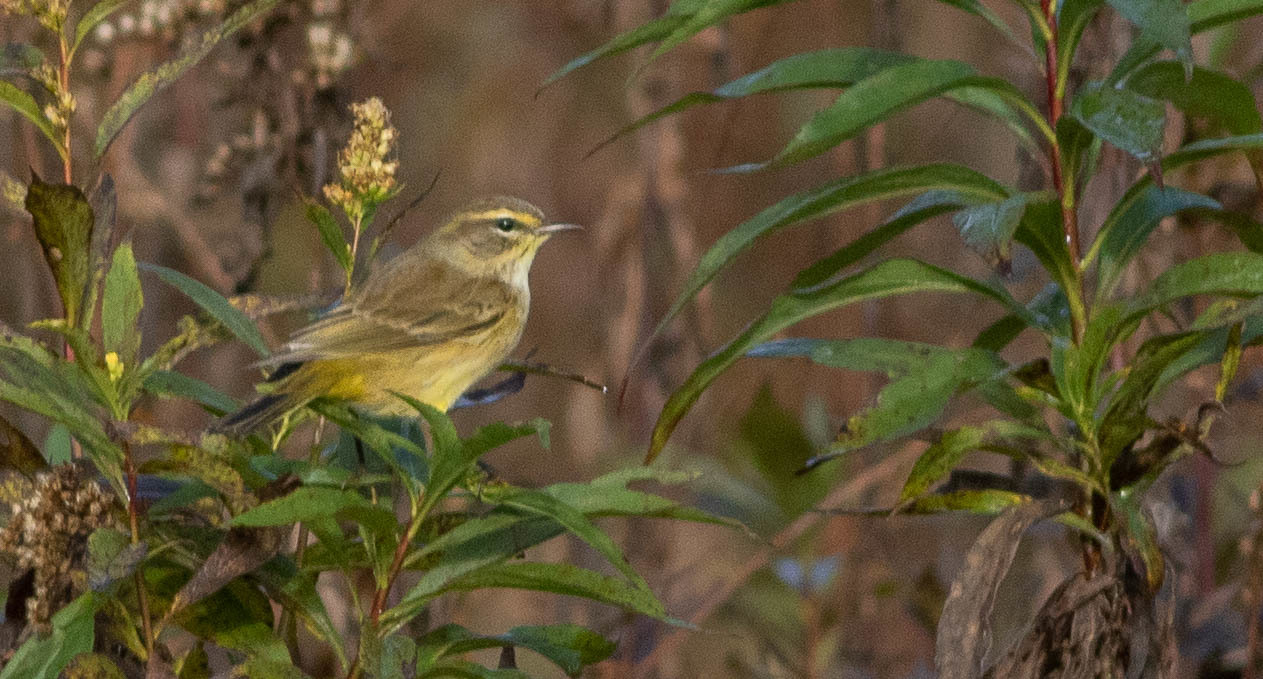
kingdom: Animalia
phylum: Chordata
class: Aves
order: Passeriformes
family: Parulidae
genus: Setophaga
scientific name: Setophaga palmarum
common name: Palm warbler
